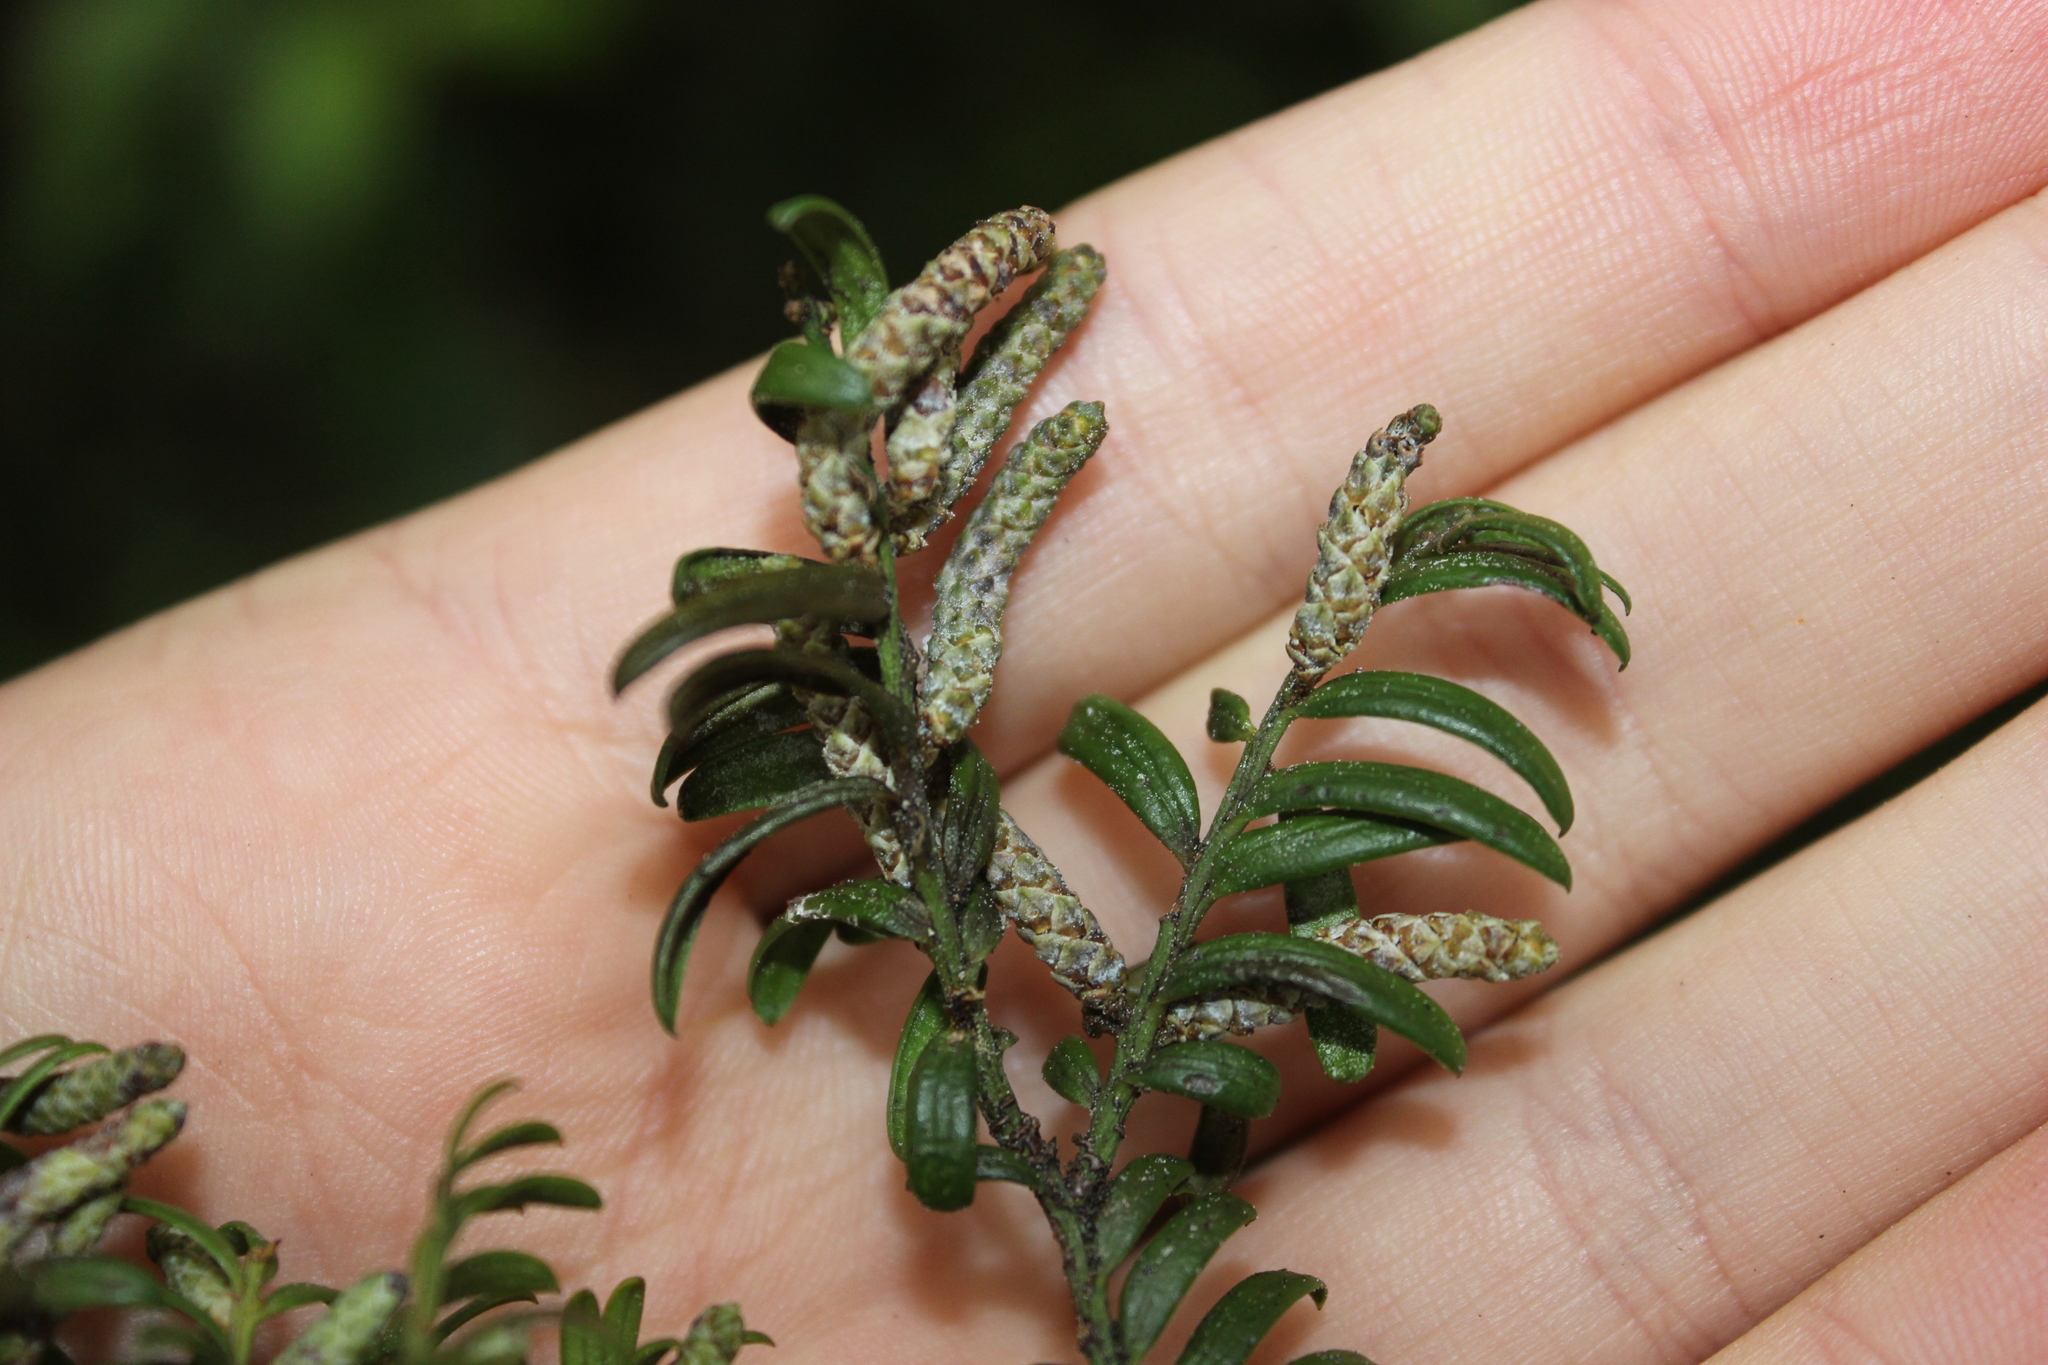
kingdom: Plantae
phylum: Tracheophyta
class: Pinopsida
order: Pinales
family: Podocarpaceae
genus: Prumnopitys
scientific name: Prumnopitys ferruginea
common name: Brown pine
